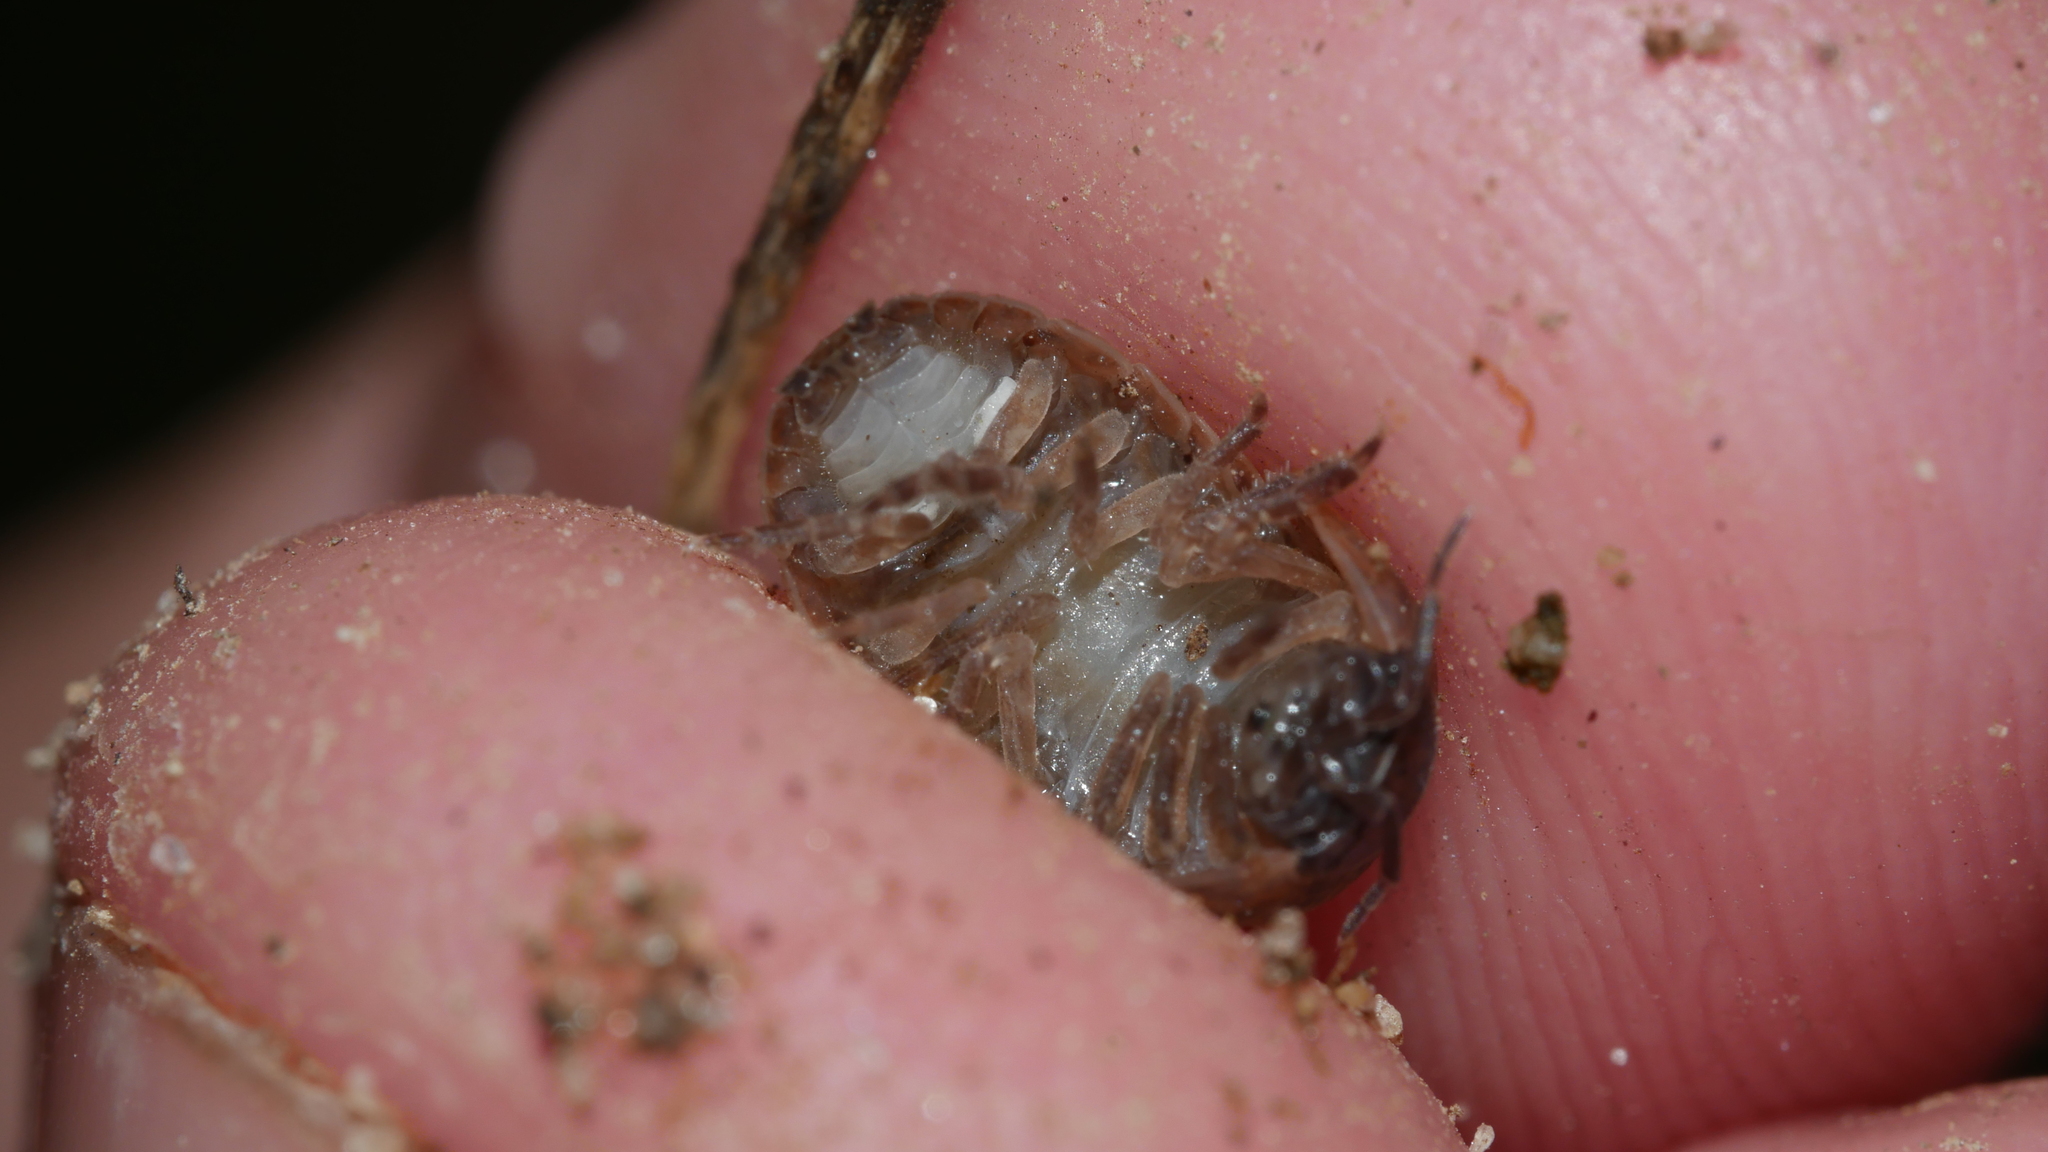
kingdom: Animalia
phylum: Arthropoda
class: Malacostraca
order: Isopoda
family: Armadillidiidae
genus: Armadillidium
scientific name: Armadillidium vulgare
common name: Common pill woodlouse
